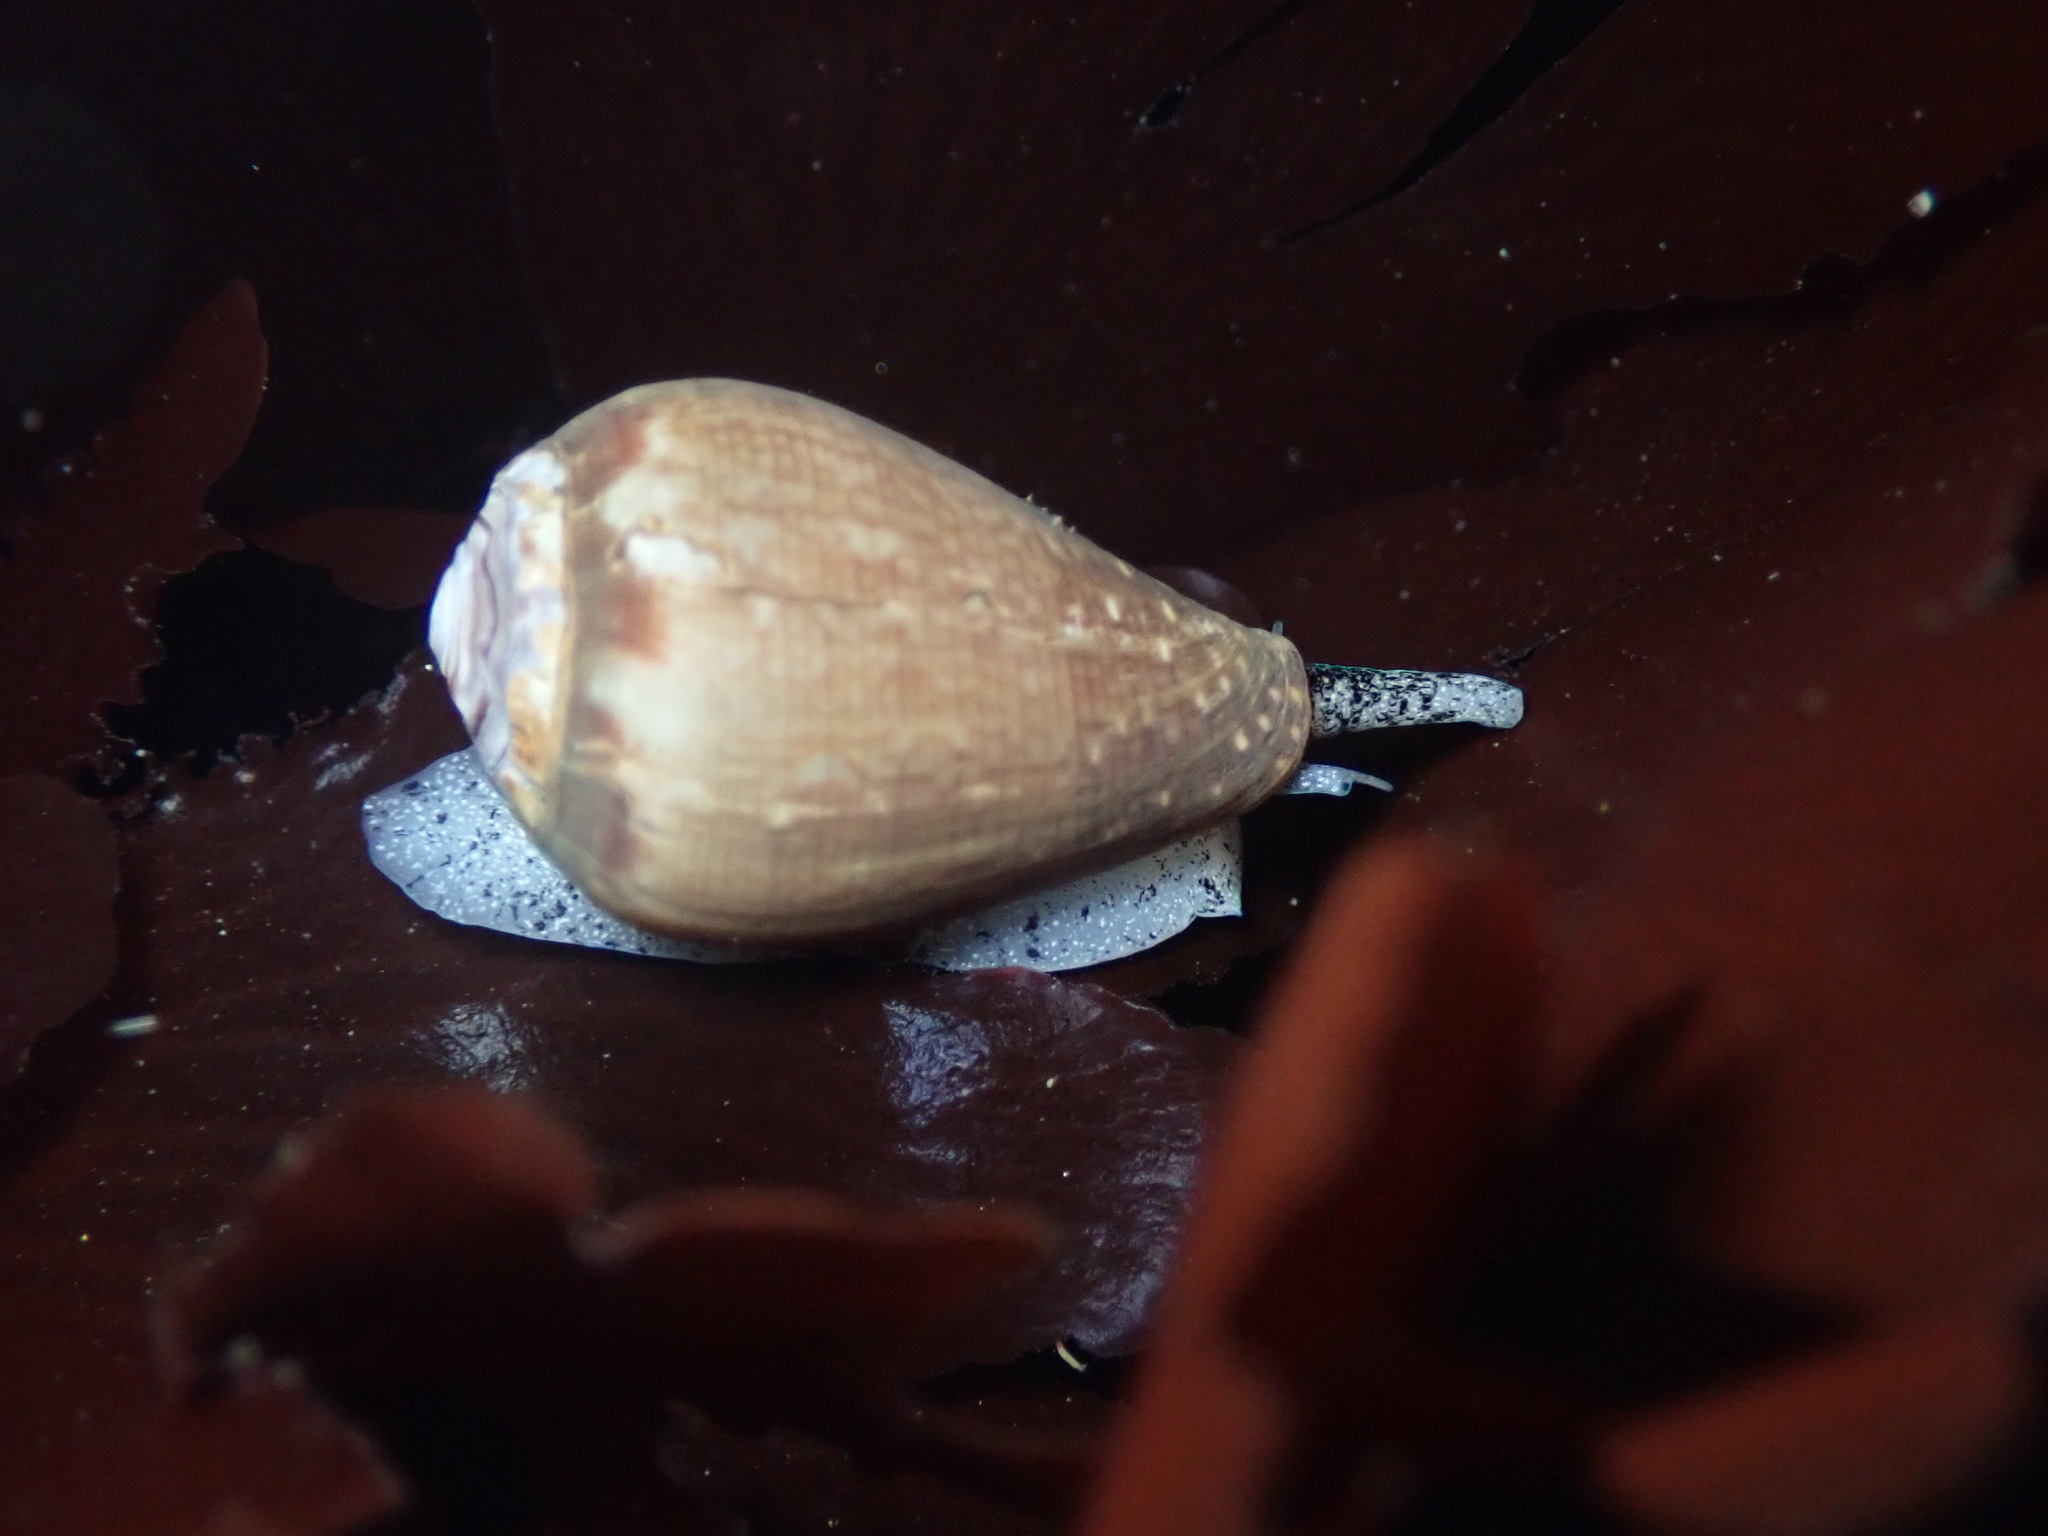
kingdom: Animalia
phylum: Mollusca
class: Gastropoda
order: Neogastropoda
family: Conidae
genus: Californiconus
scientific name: Californiconus californicus
